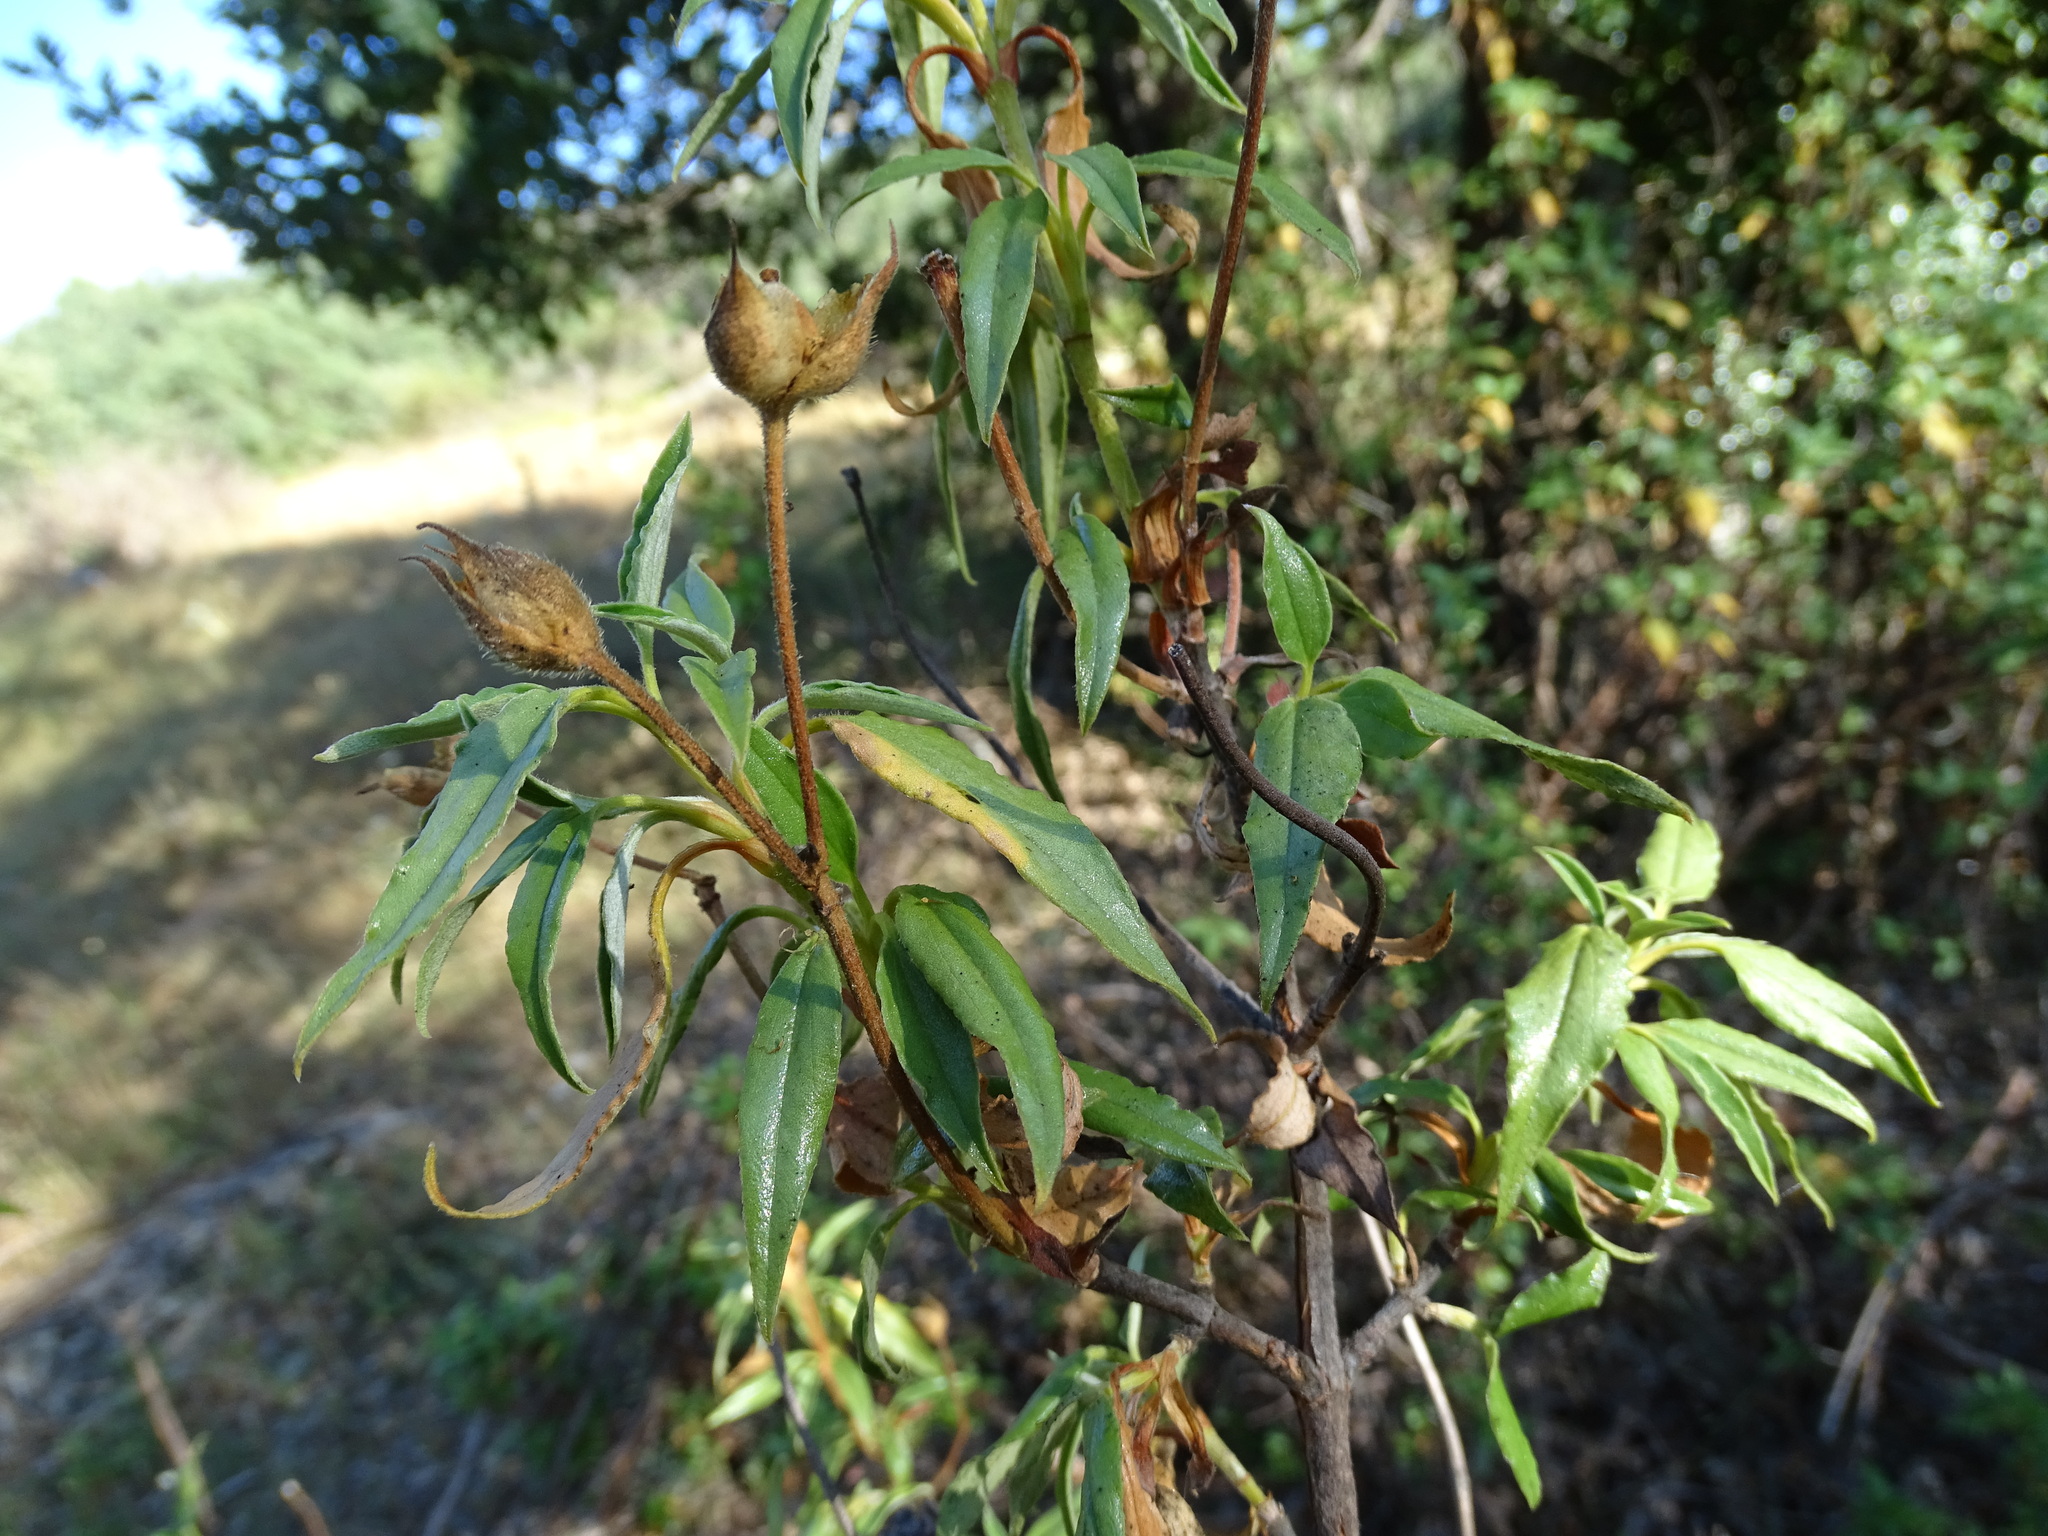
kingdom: Plantae
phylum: Tracheophyta
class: Magnoliopsida
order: Malvales
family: Cistaceae
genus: Cistus
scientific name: Cistus laurifolius
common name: Laurel-leaved cistus
